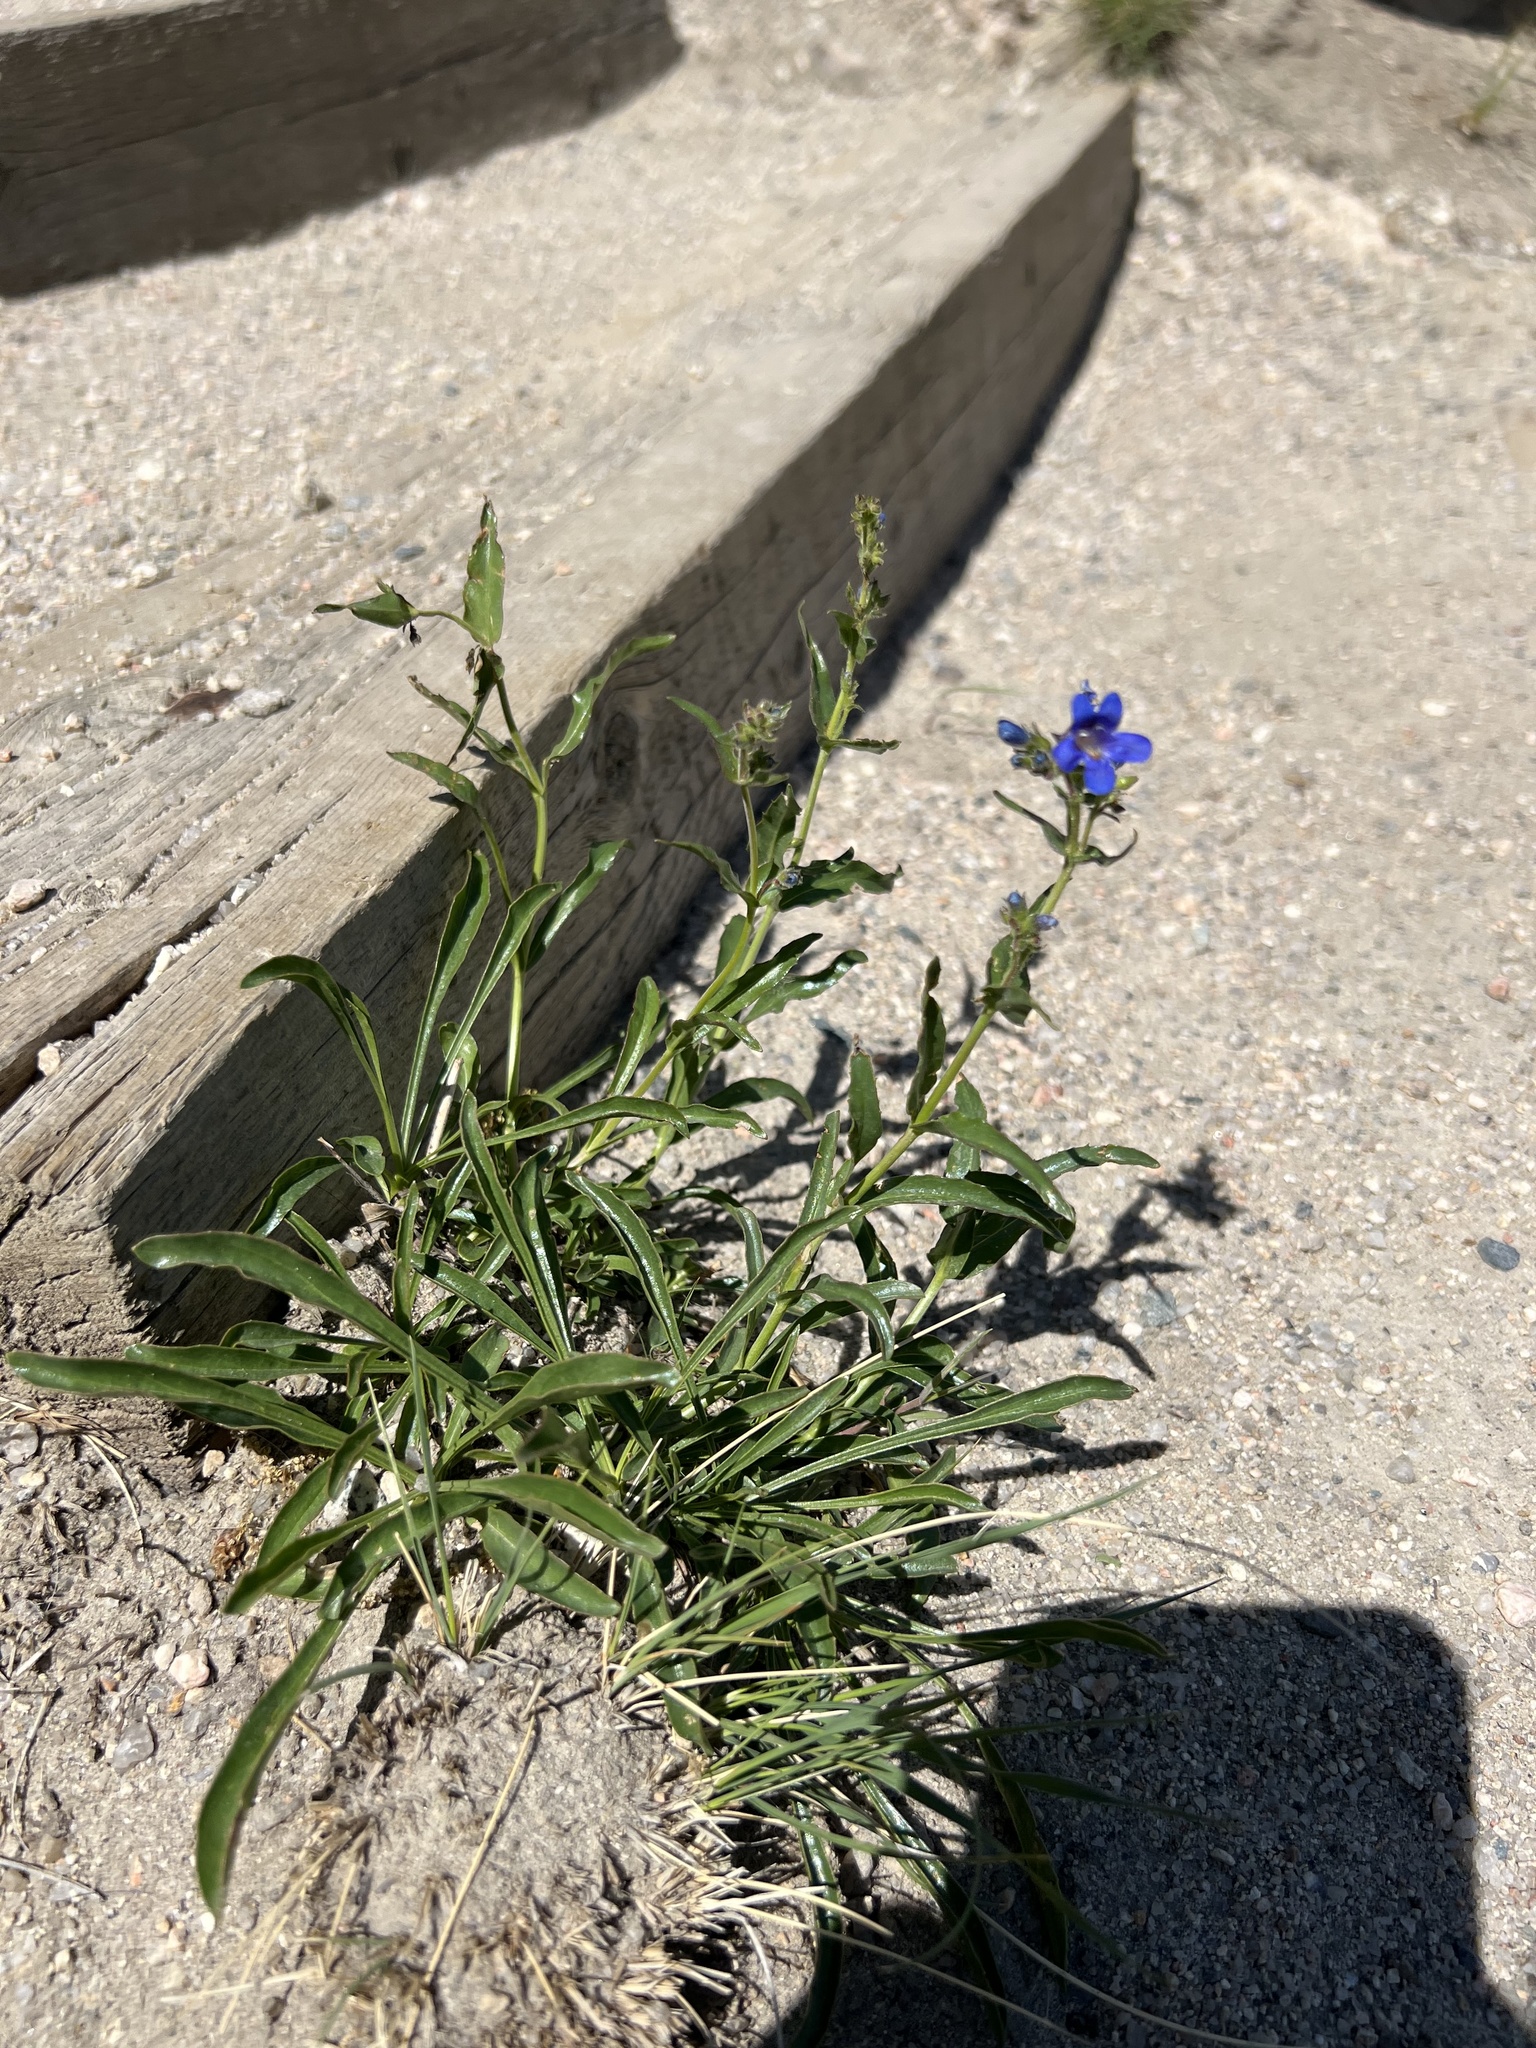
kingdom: Plantae
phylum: Tracheophyta
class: Magnoliopsida
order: Lamiales
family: Plantaginaceae
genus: Penstemon
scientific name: Penstemon virens
